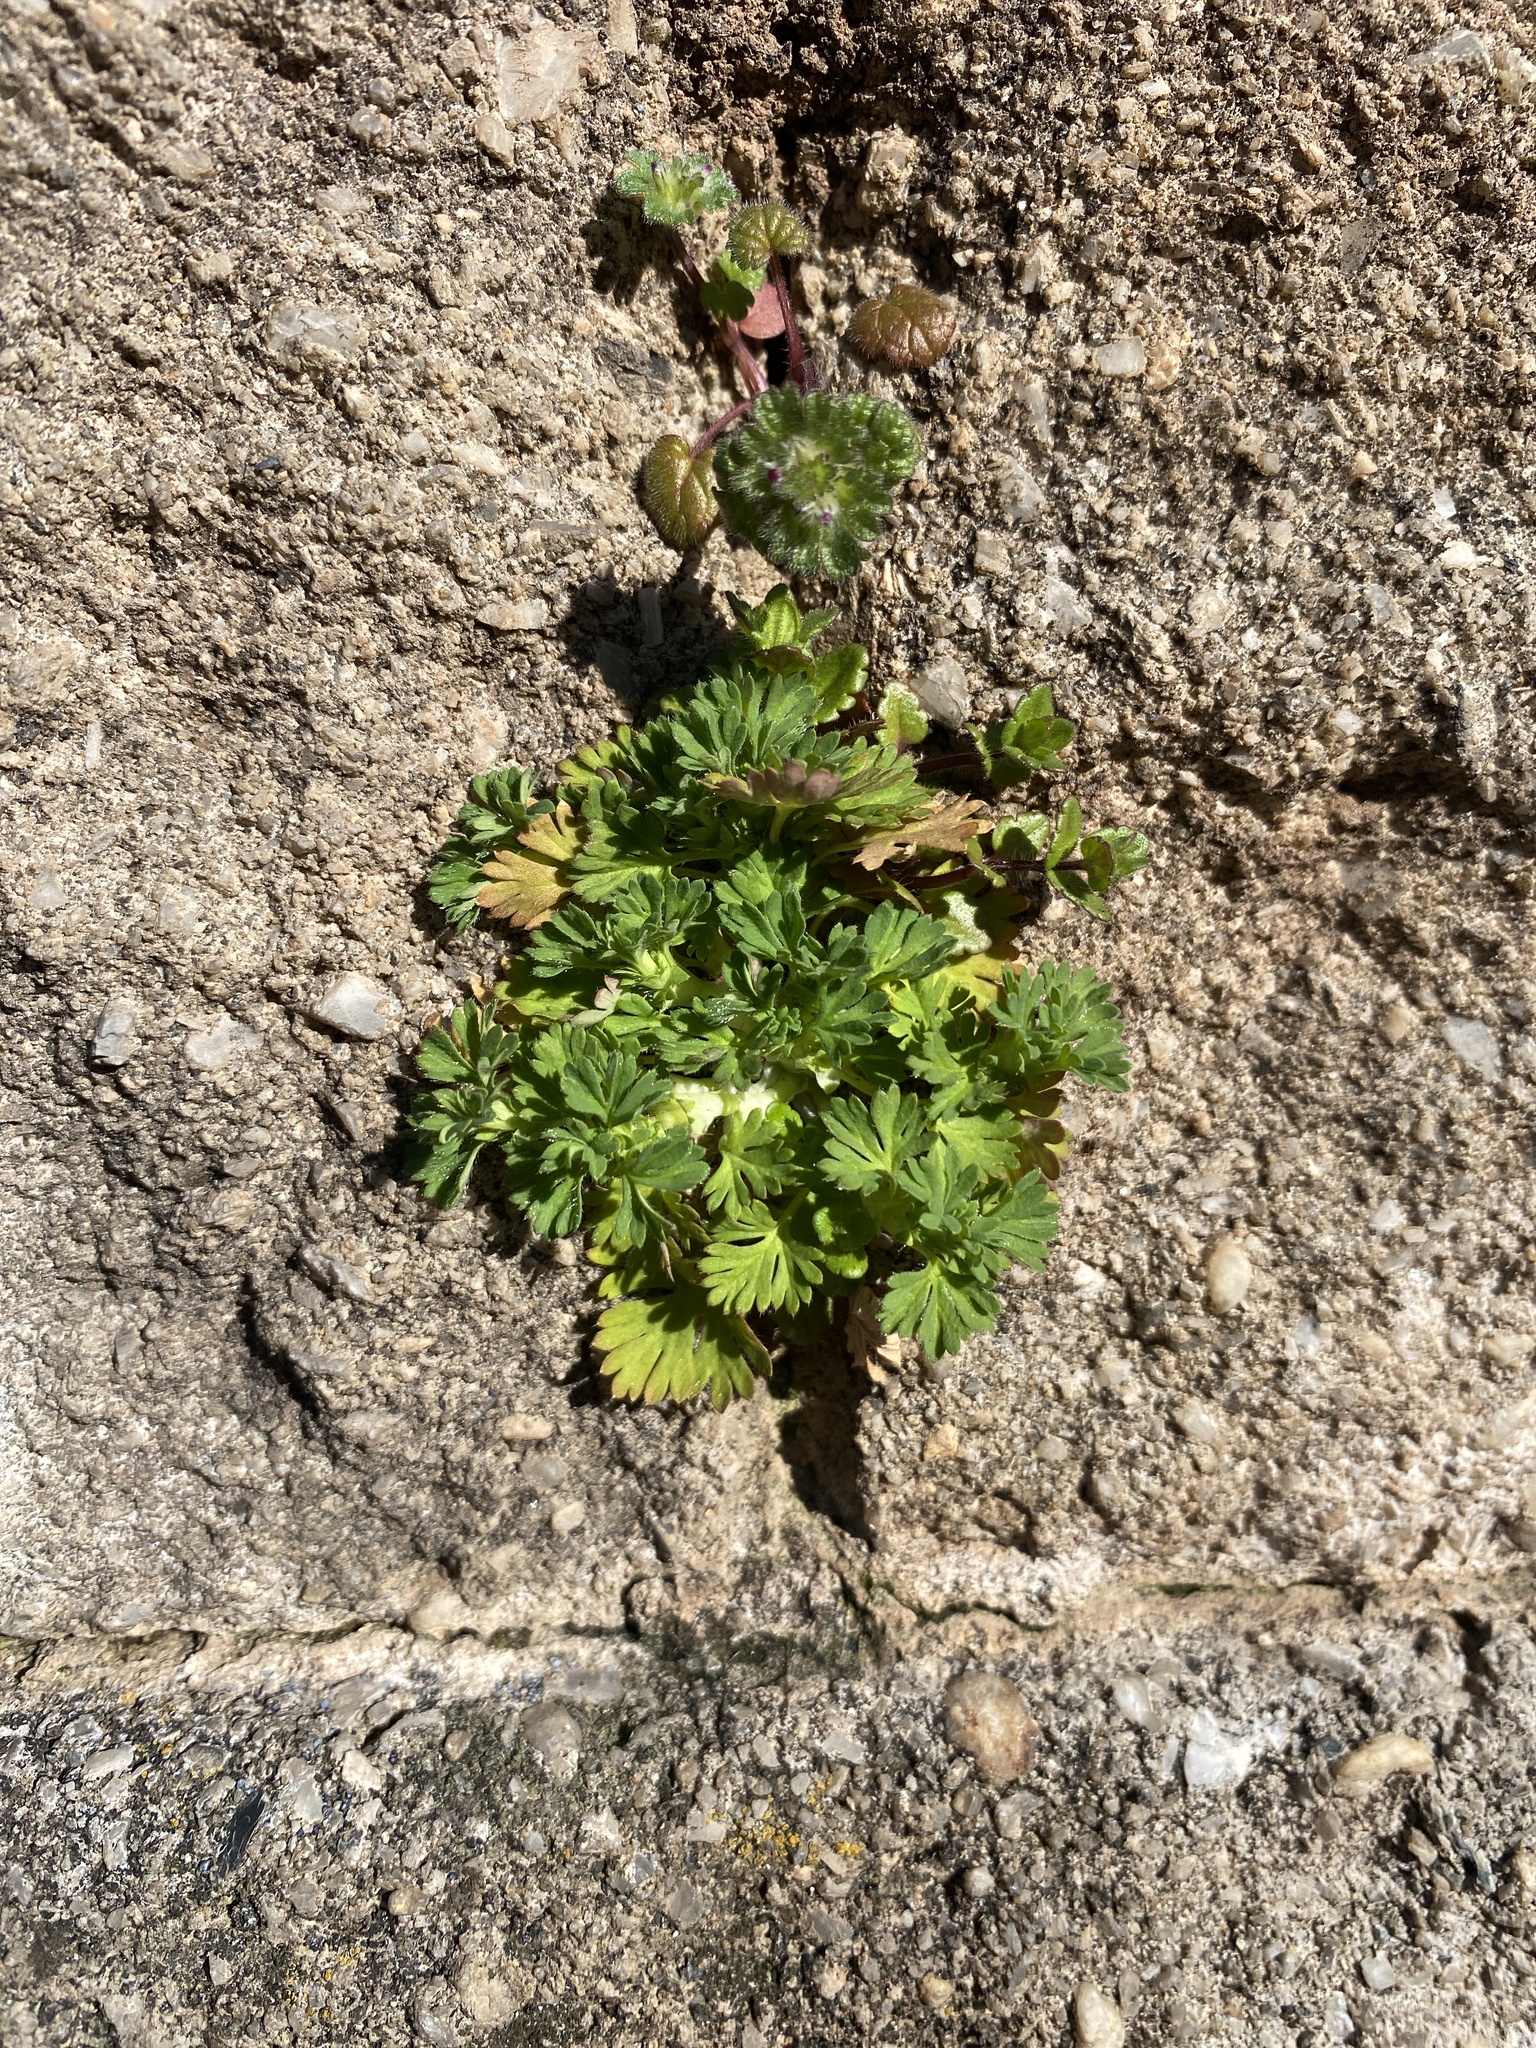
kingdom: Plantae
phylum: Tracheophyta
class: Magnoliopsida
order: Rosales
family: Rosaceae
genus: Aphanes
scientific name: Aphanes australis
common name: Slender parsley-piert
